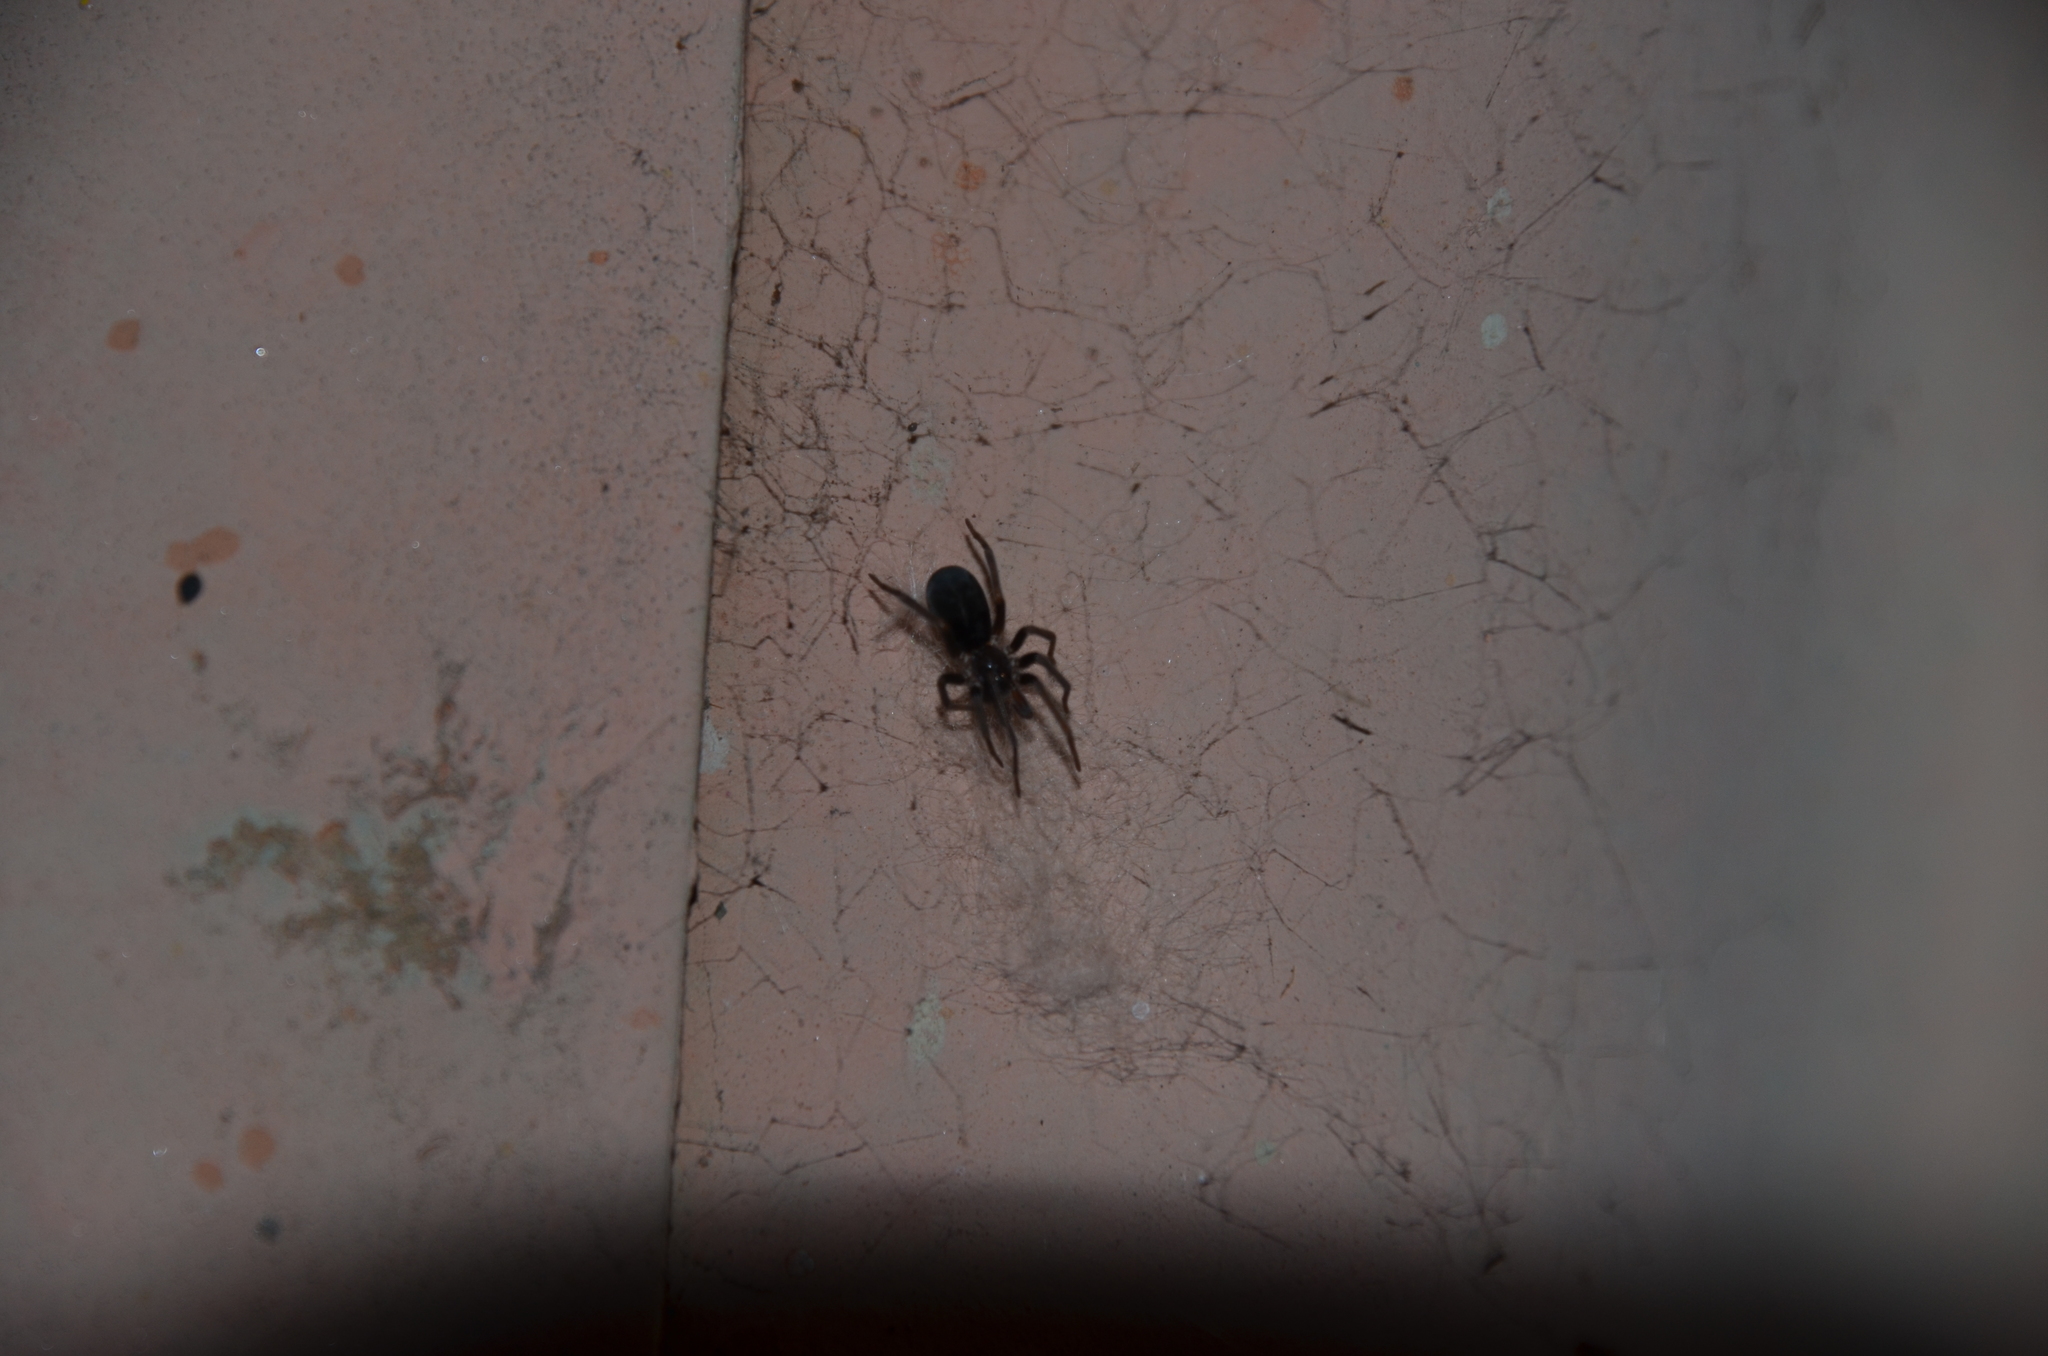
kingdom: Animalia
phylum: Arthropoda
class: Arachnida
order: Araneae
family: Filistatidae
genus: Kukulcania
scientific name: Kukulcania hibernalis
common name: Crevice weaver
